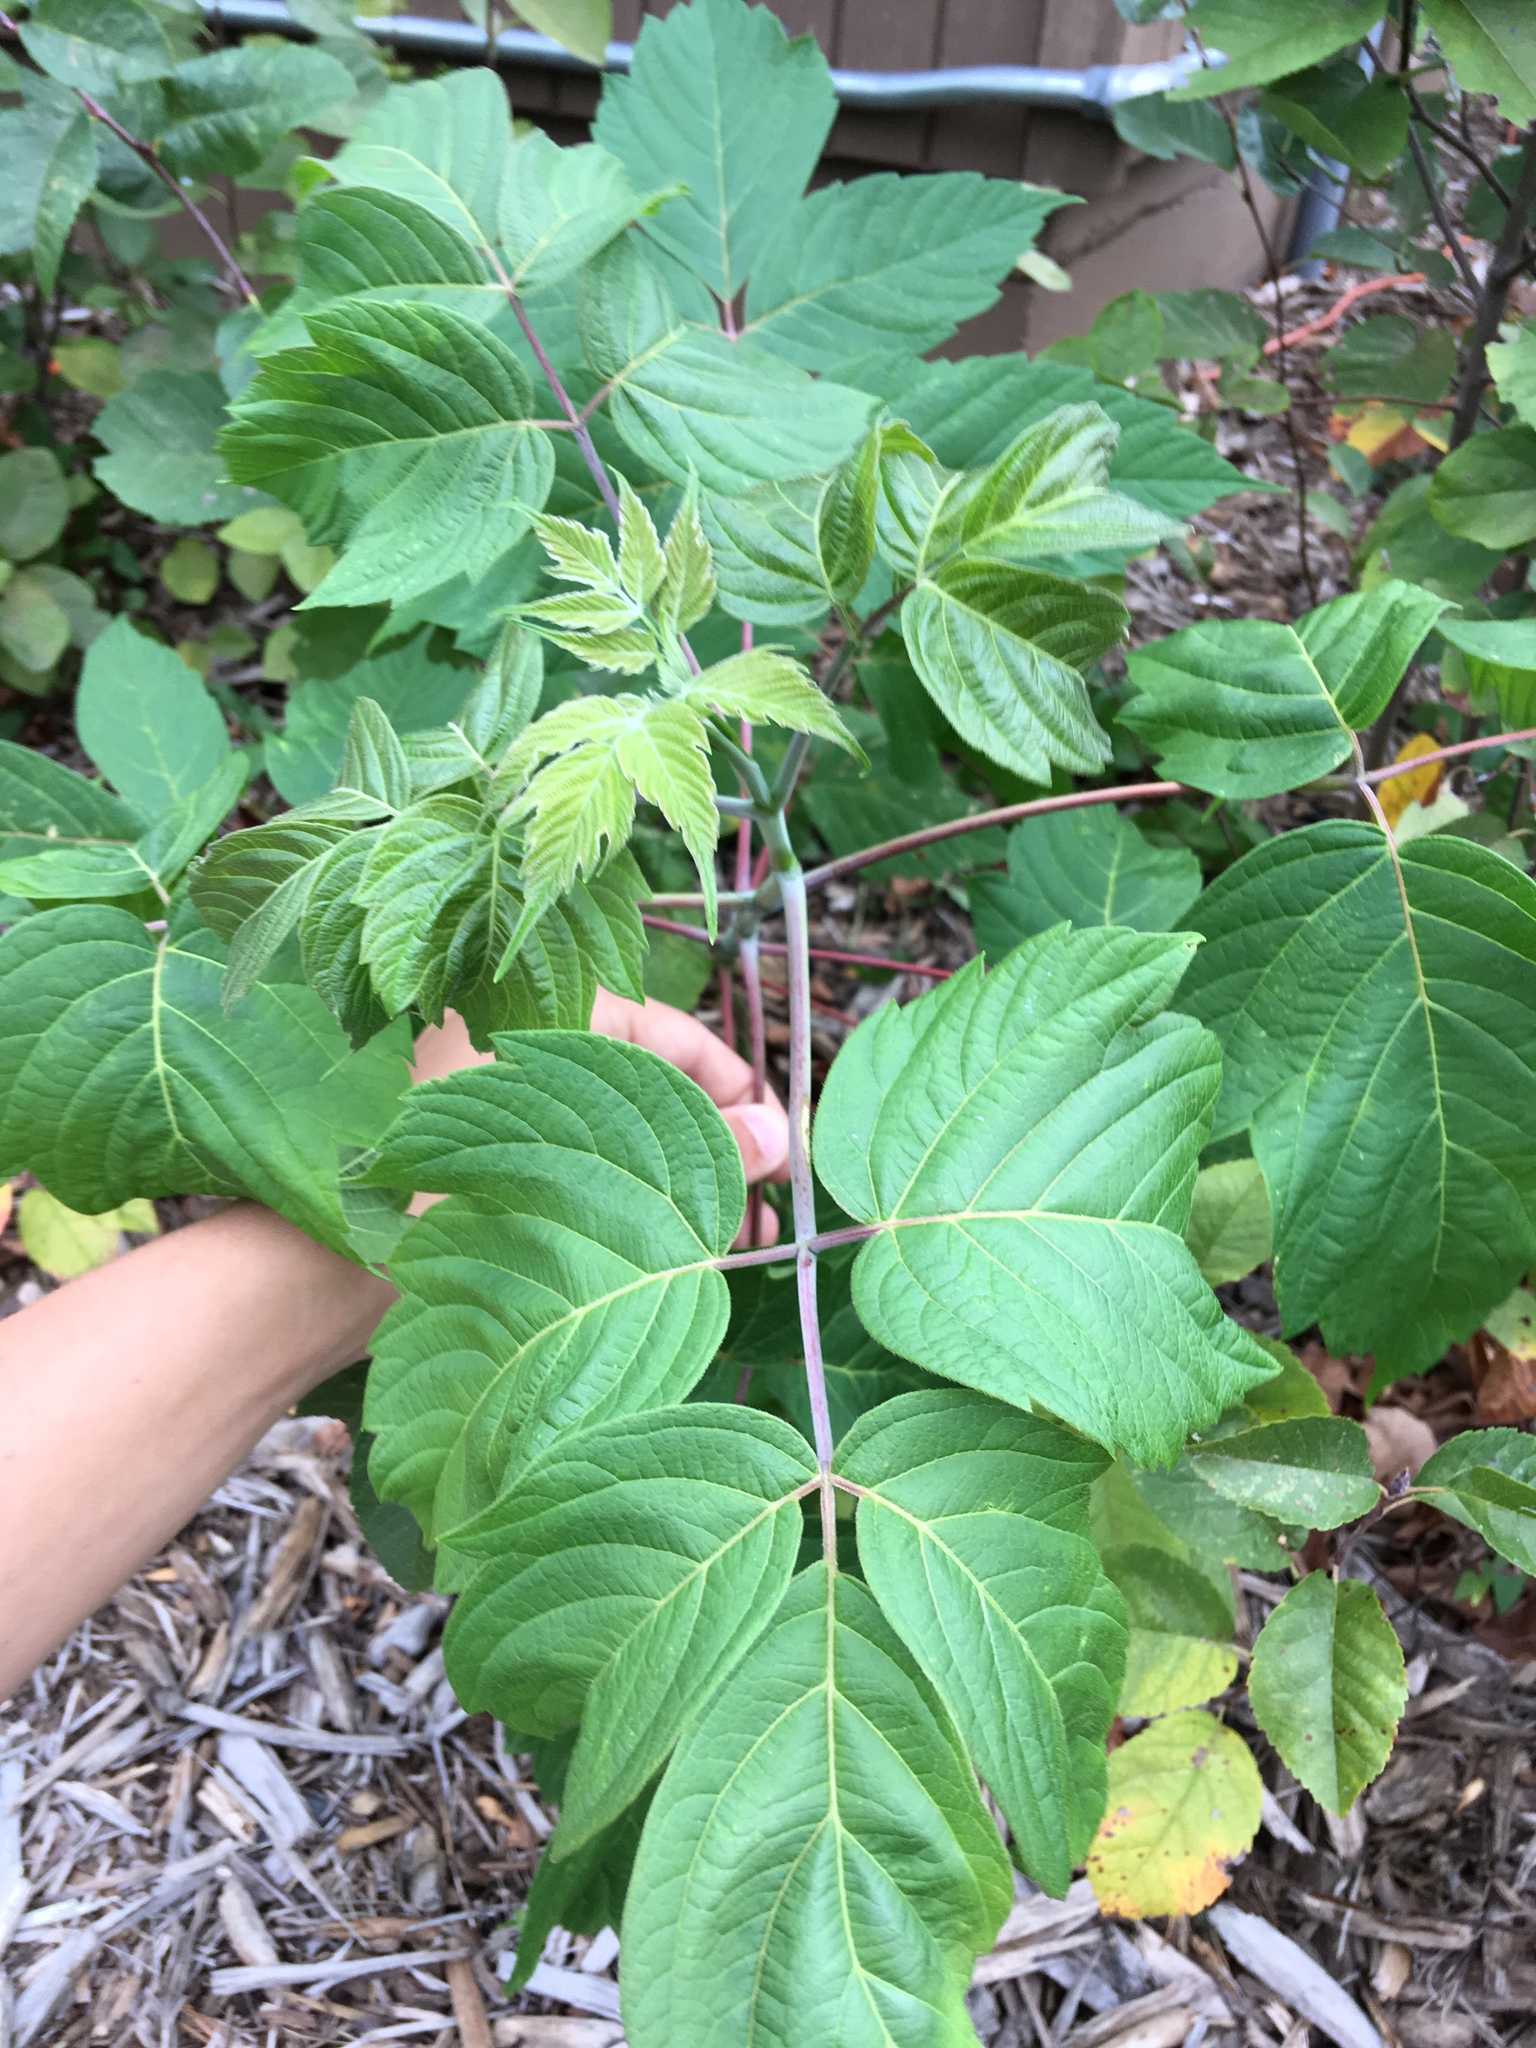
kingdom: Plantae
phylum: Tracheophyta
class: Magnoliopsida
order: Sapindales
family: Sapindaceae
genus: Acer
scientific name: Acer negundo
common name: Ashleaf maple
